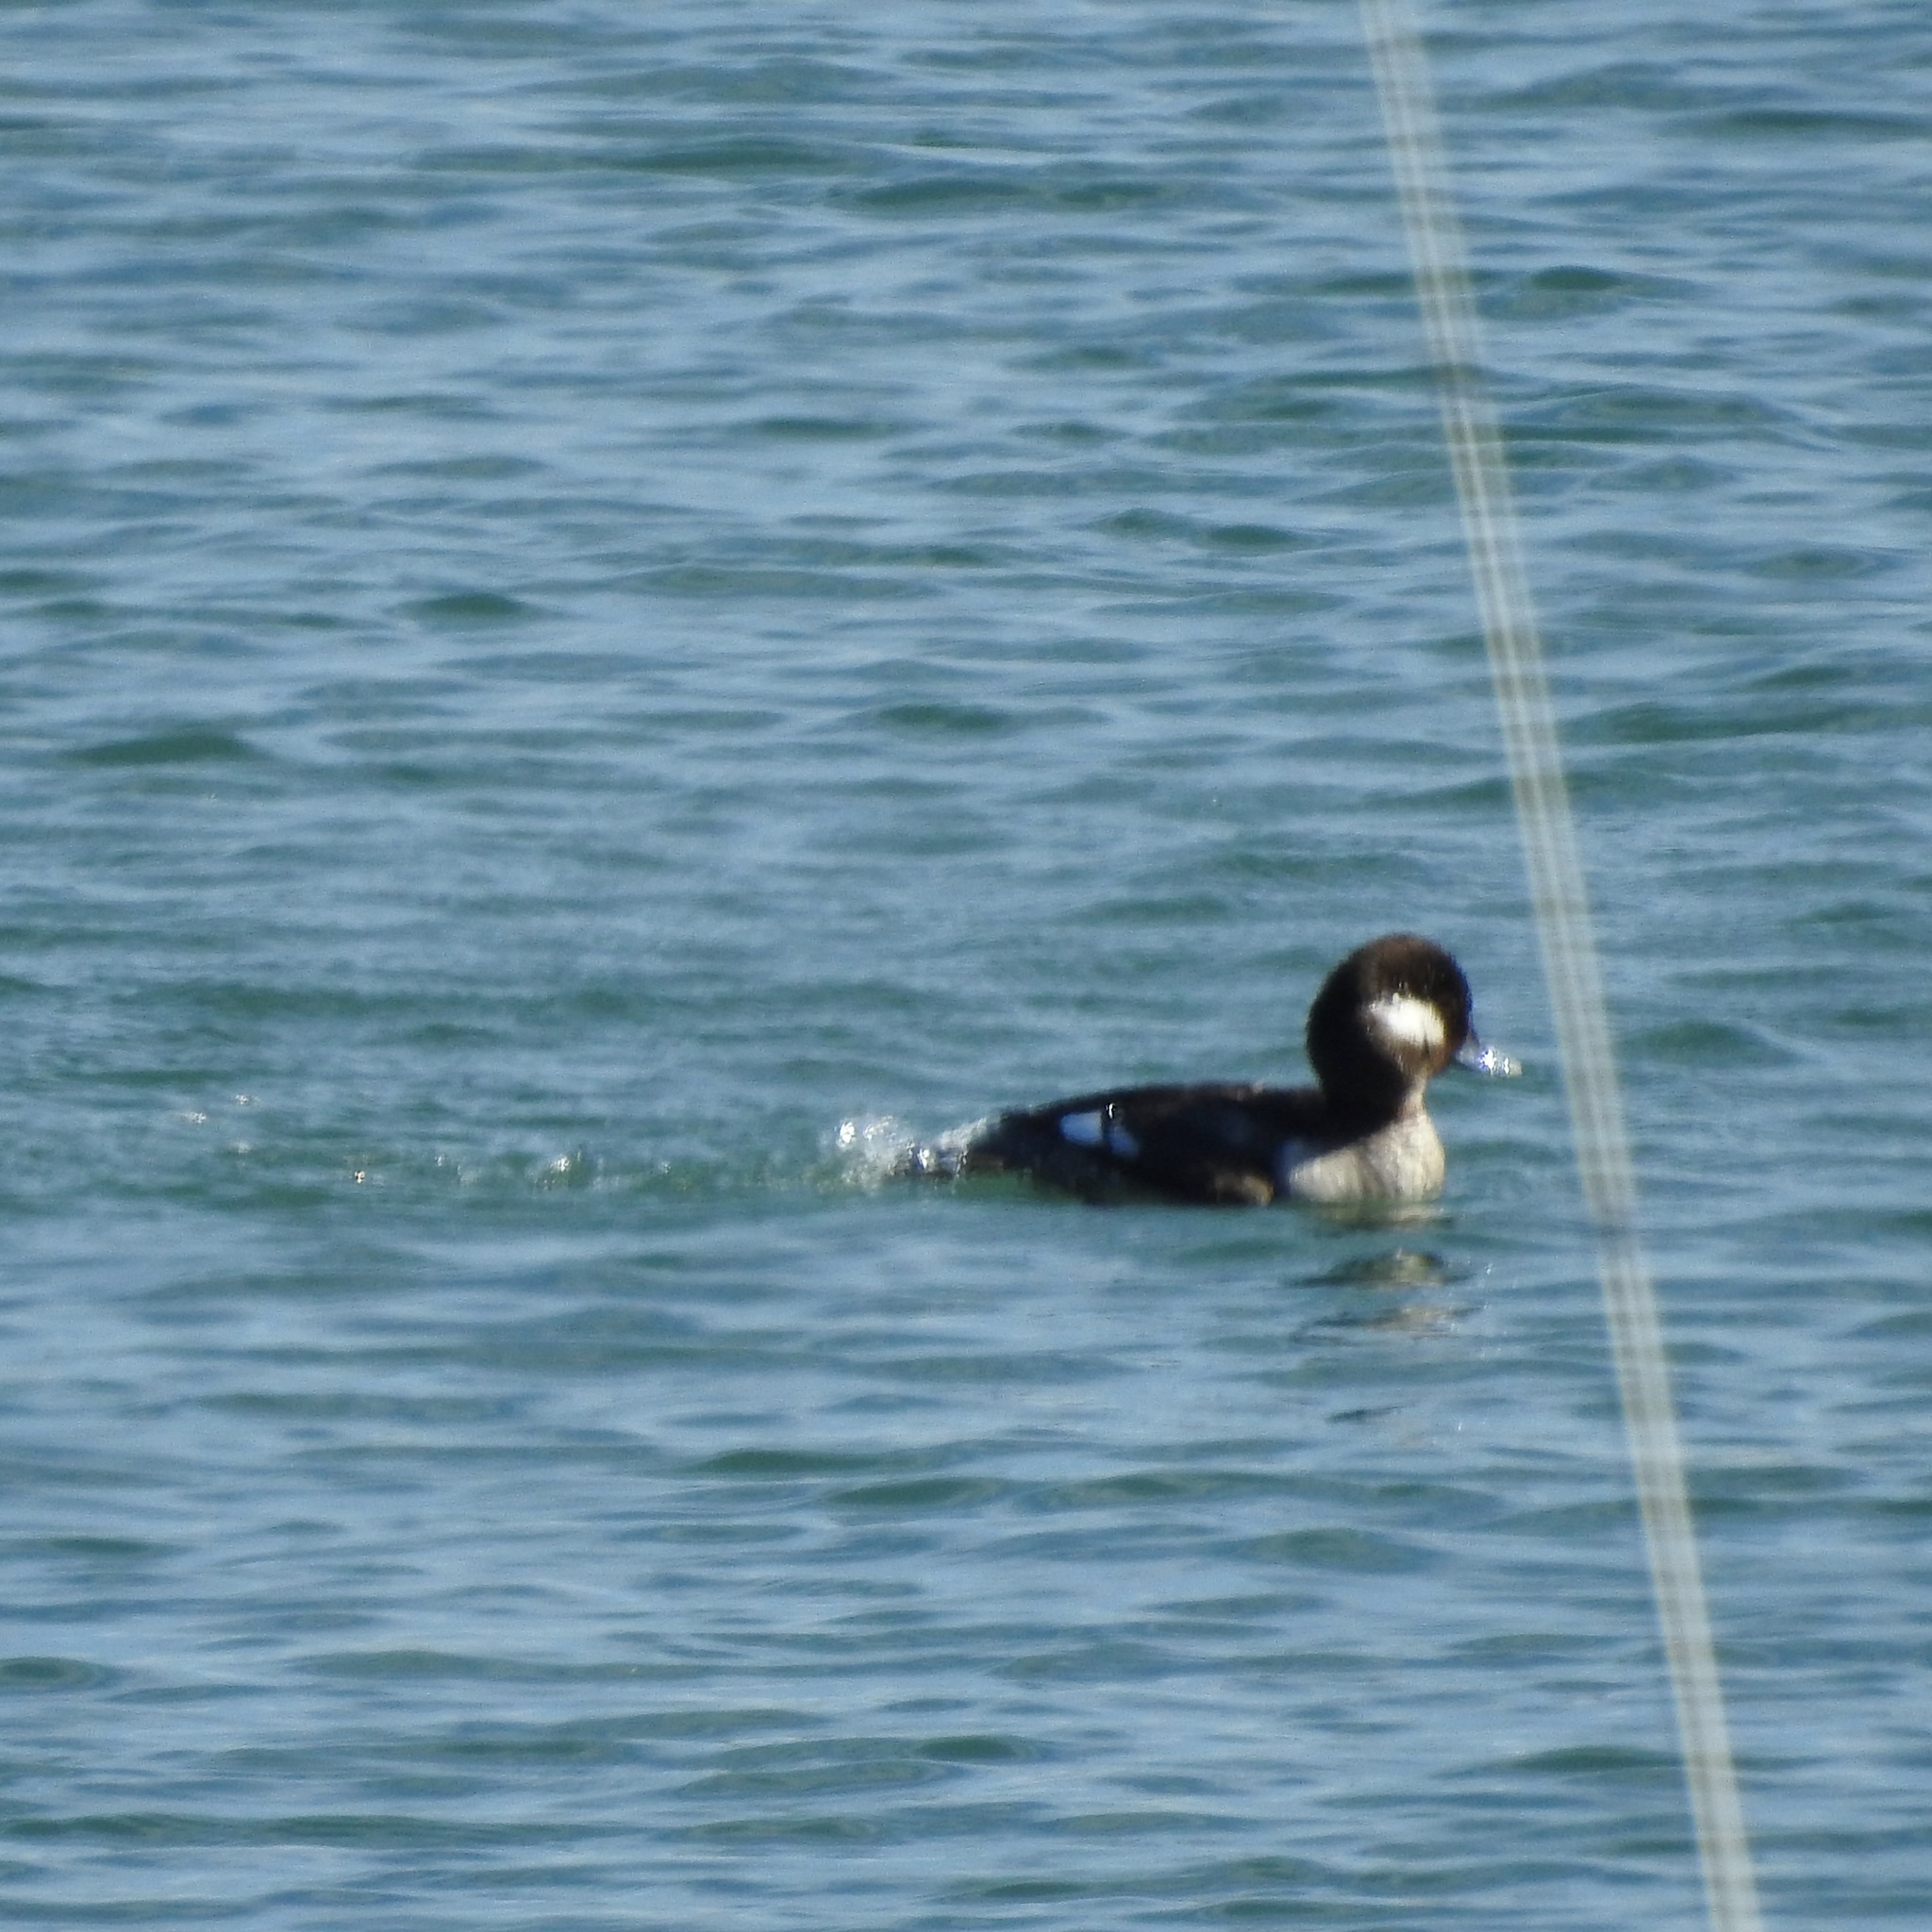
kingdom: Animalia
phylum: Chordata
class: Aves
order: Anseriformes
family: Anatidae
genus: Bucephala
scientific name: Bucephala albeola
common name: Bufflehead
